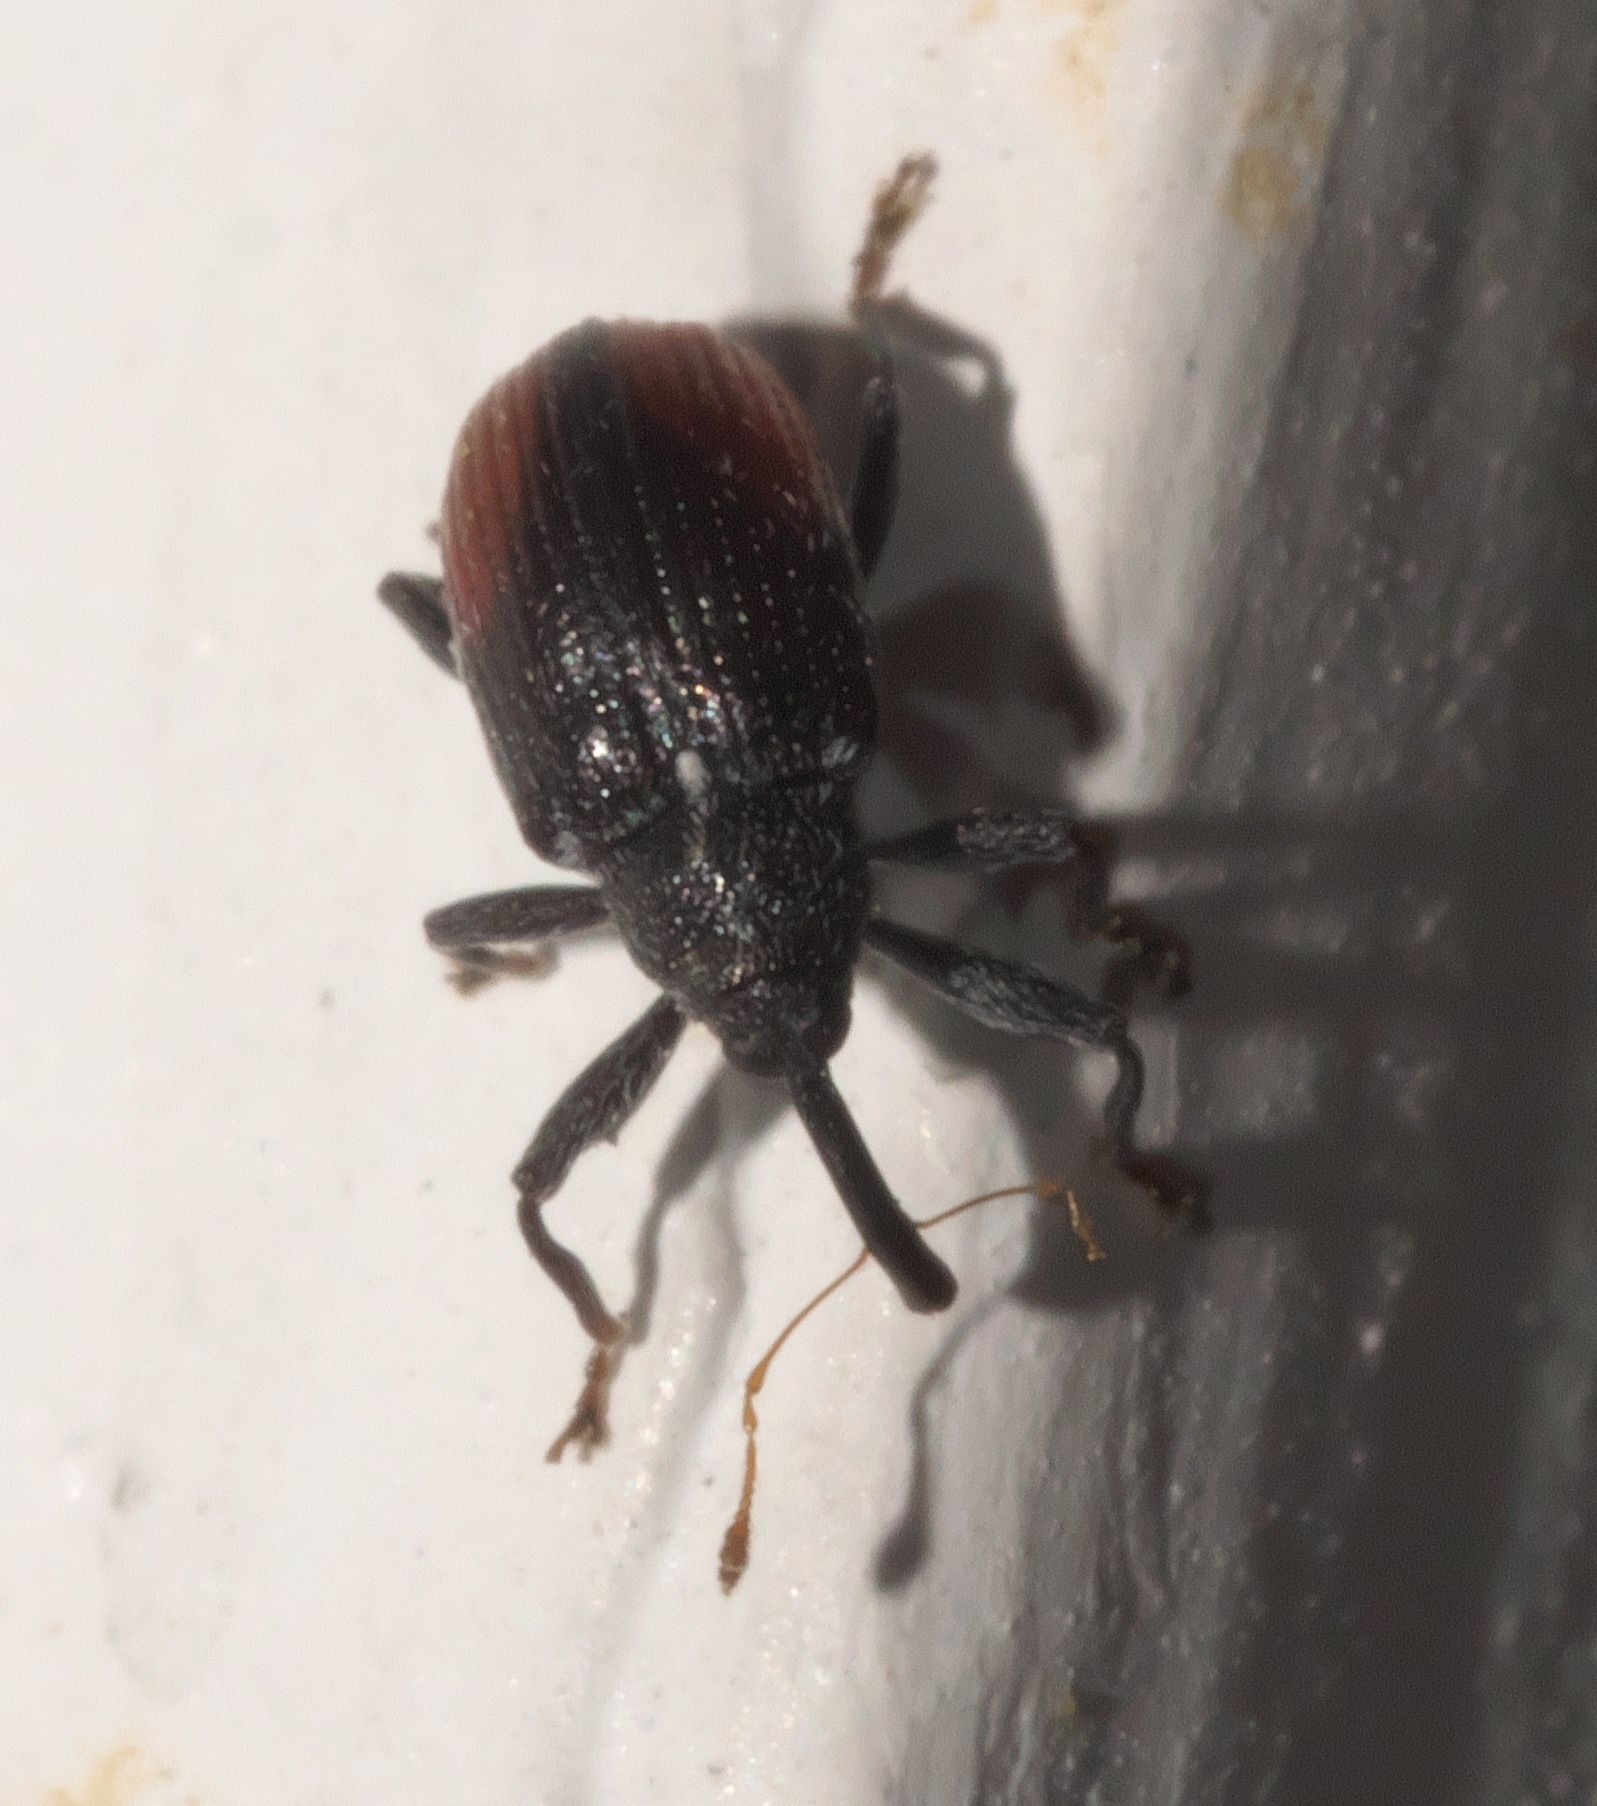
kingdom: Animalia
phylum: Arthropoda
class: Insecta
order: Coleoptera
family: Curculionidae
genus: Anthonomus
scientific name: Anthonomus suturalis
